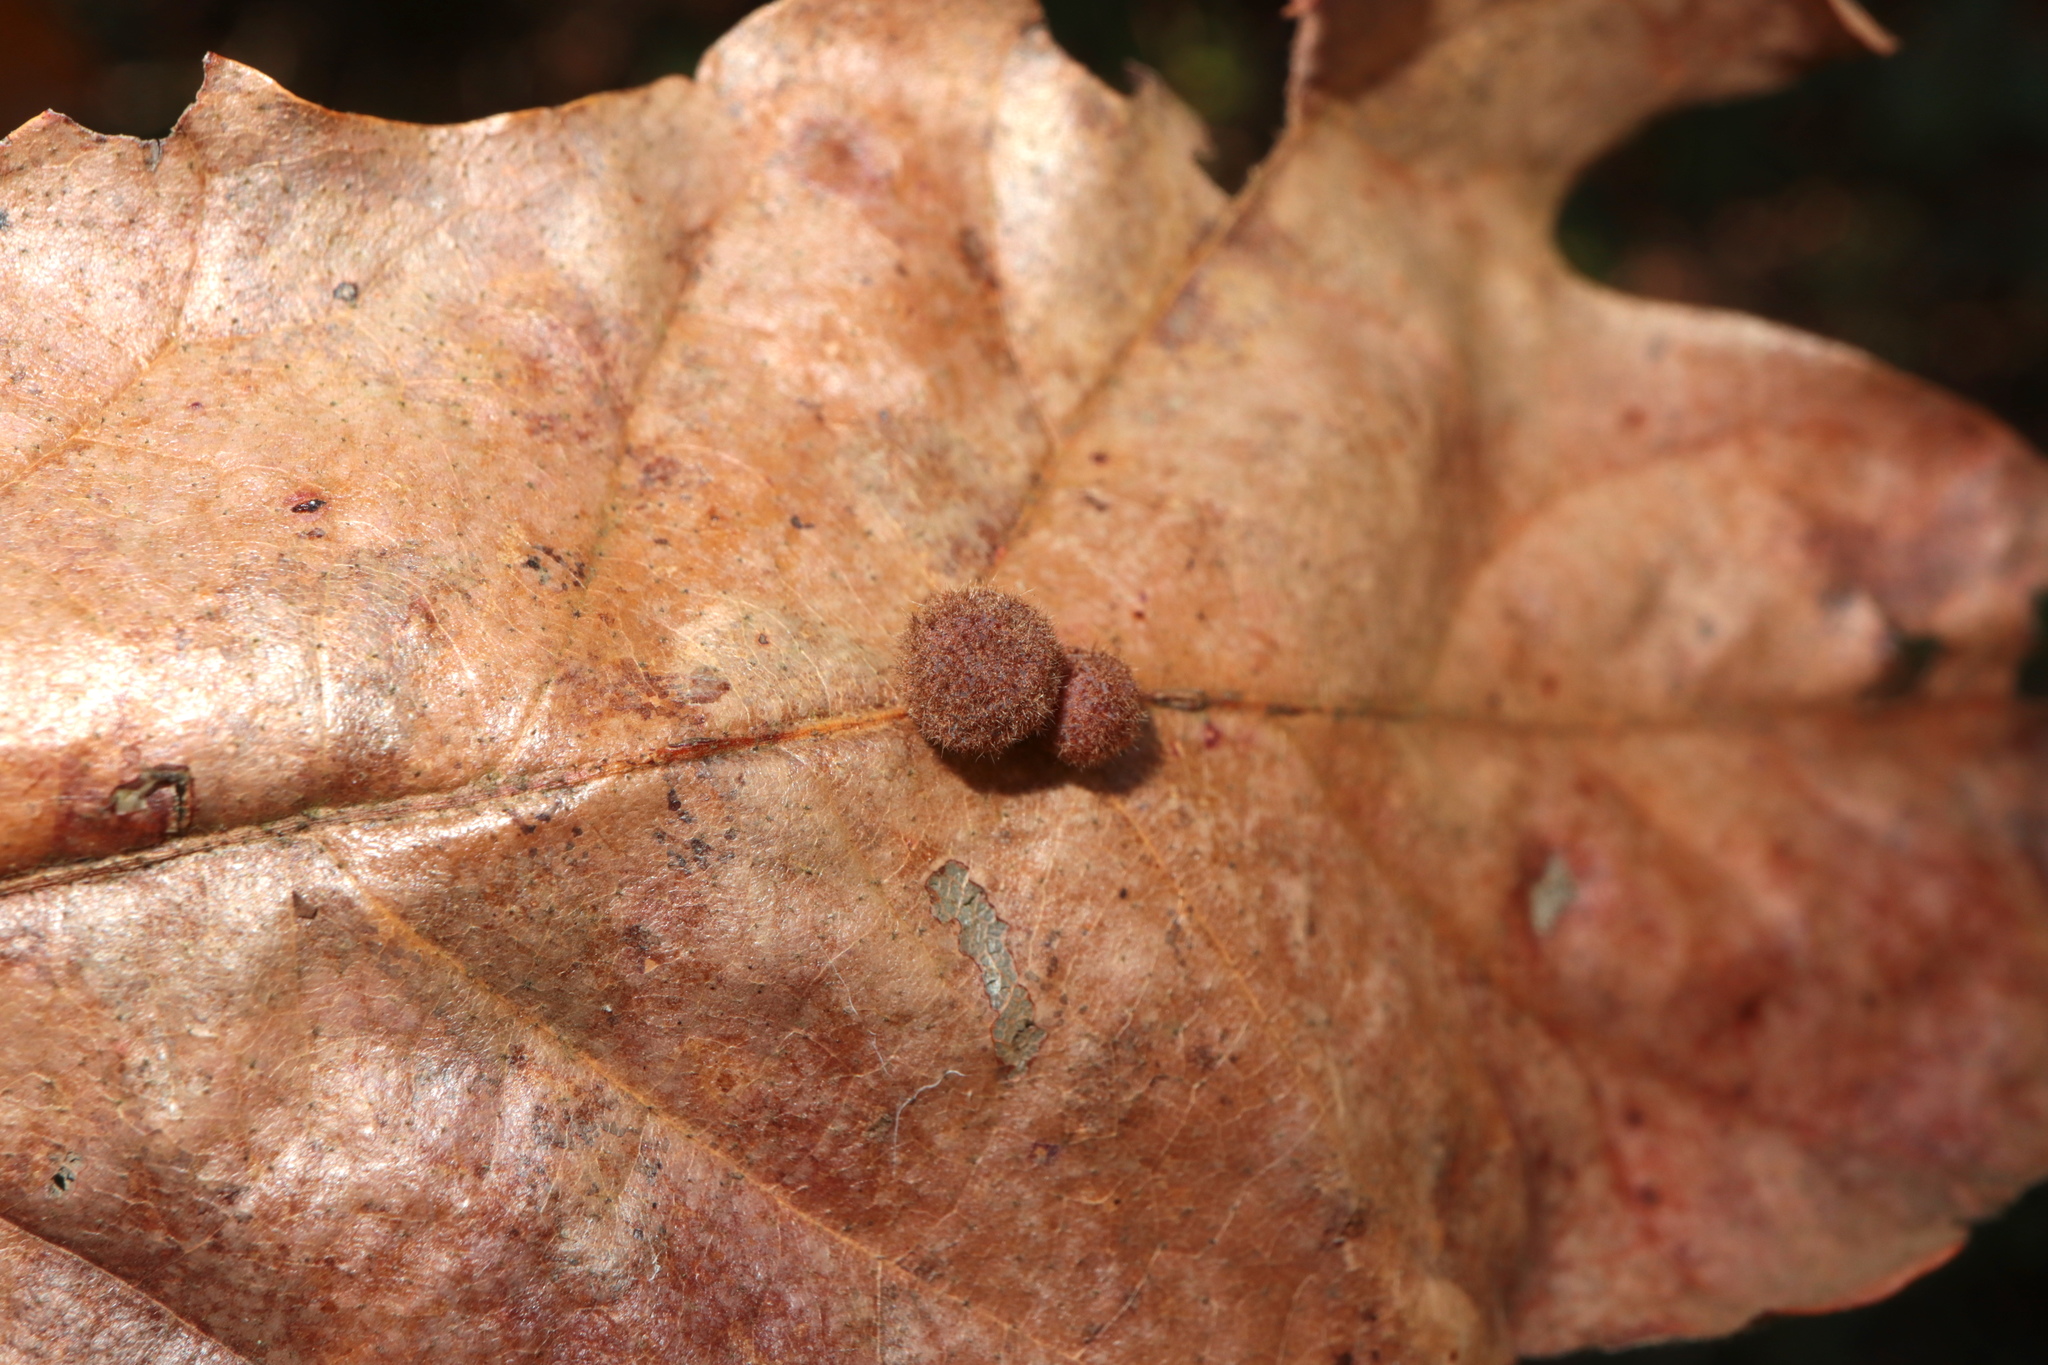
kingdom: Animalia
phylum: Arthropoda
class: Insecta
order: Hymenoptera
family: Cynipidae
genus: Biorhiza
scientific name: Biorhiza Sphaeroteras carolina
